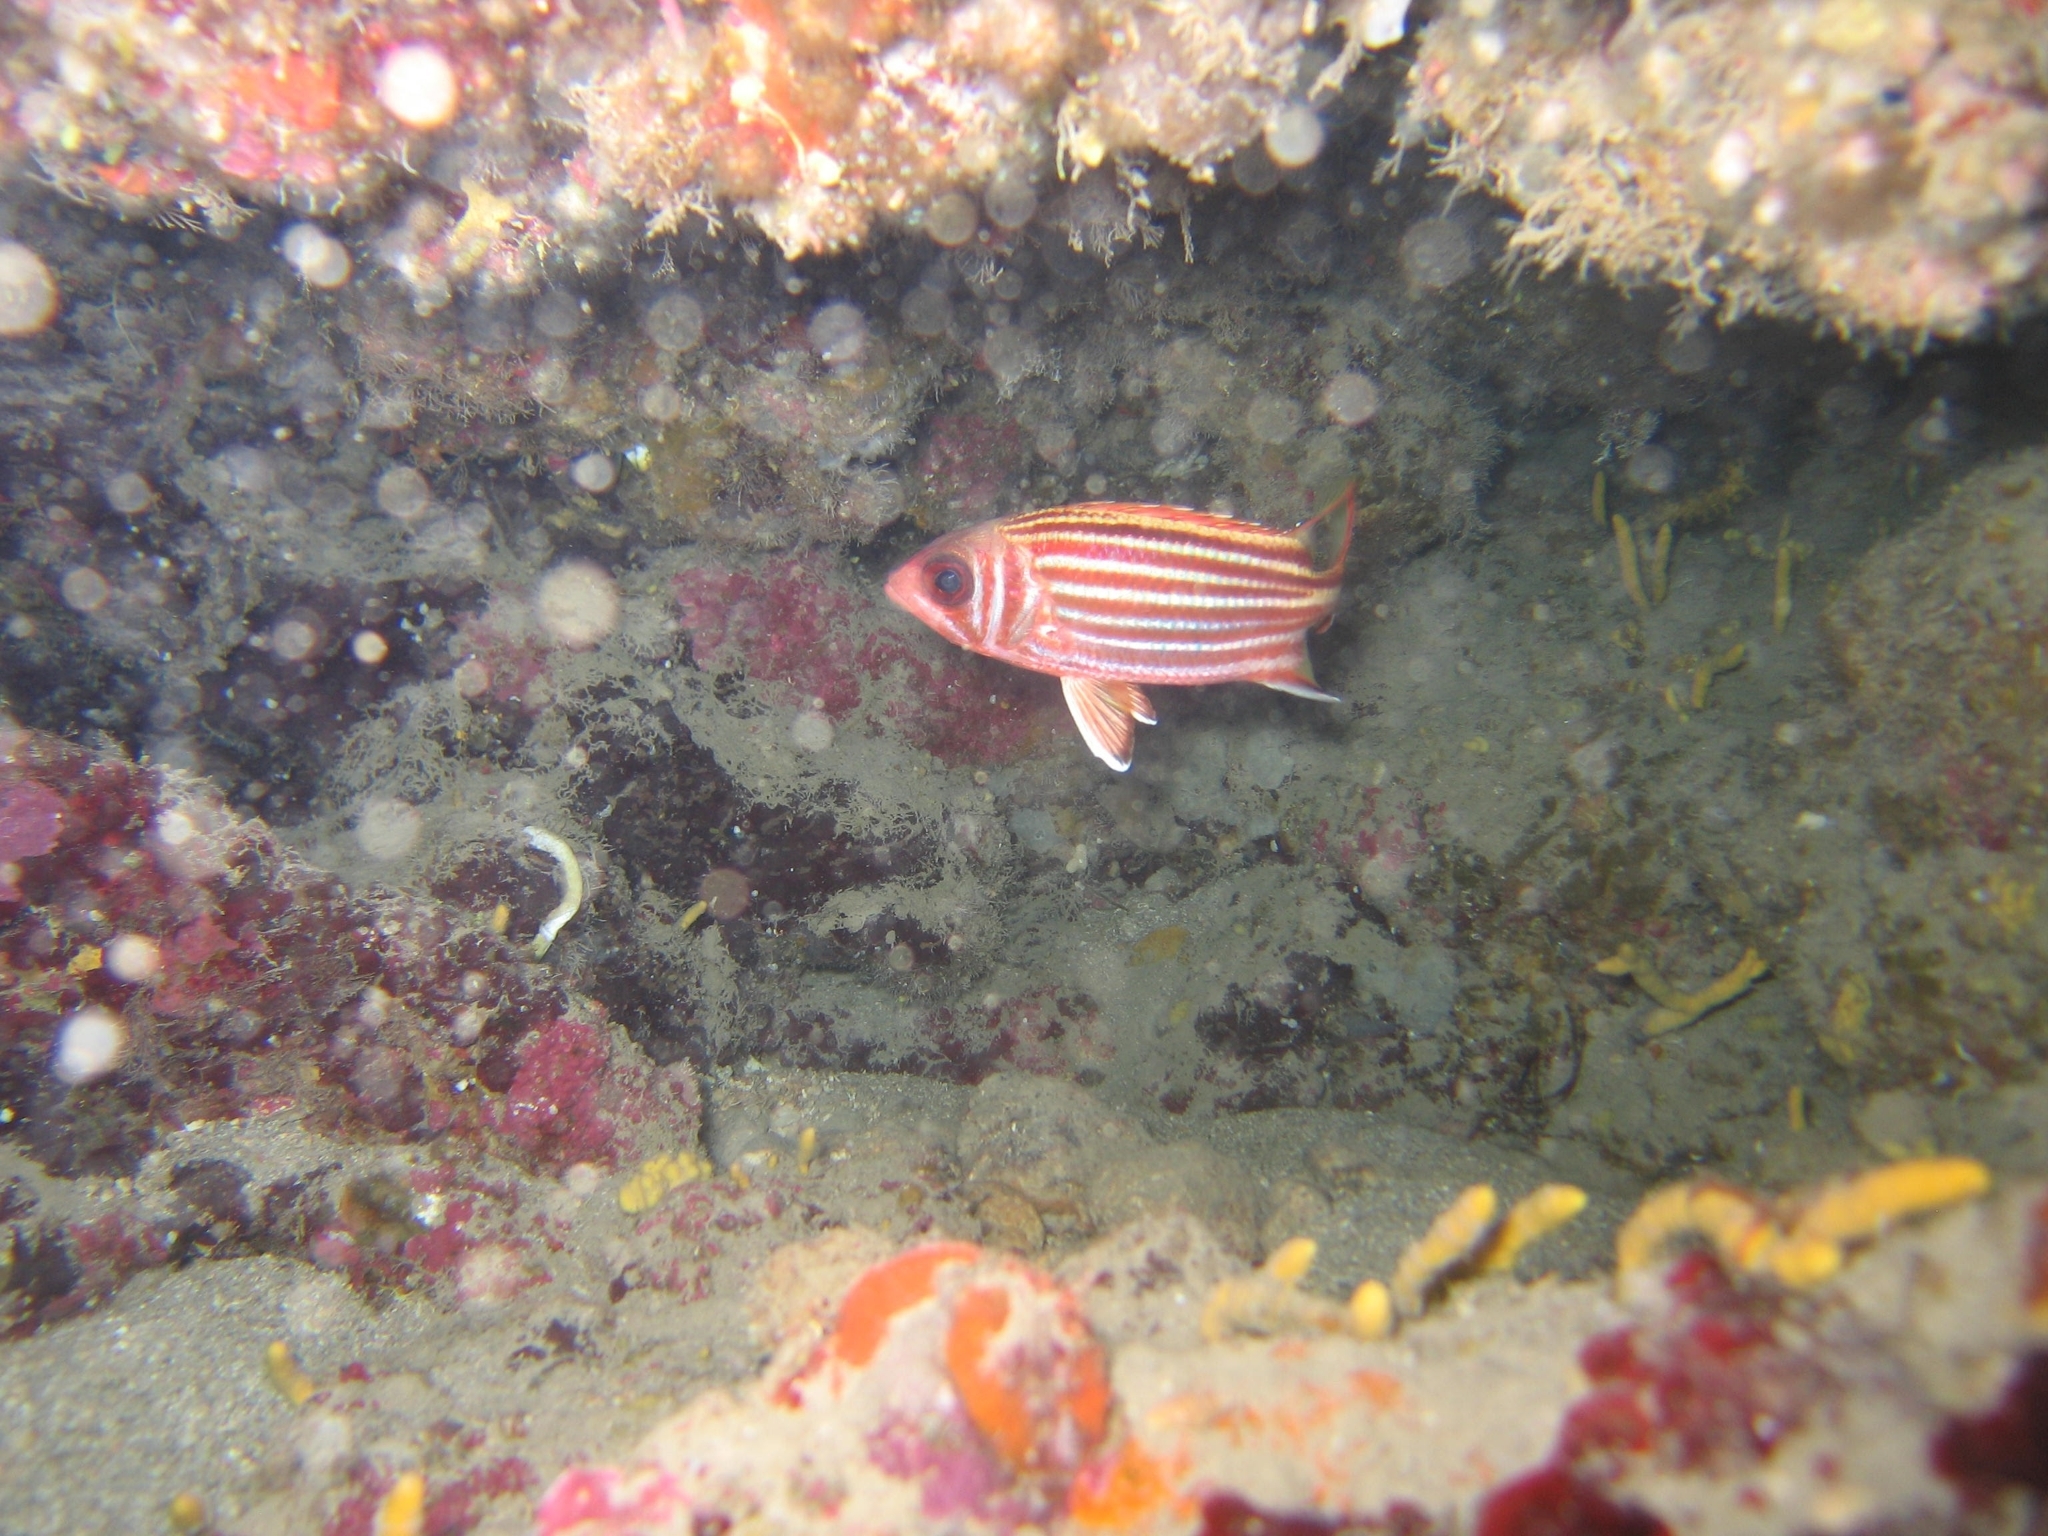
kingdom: Animalia
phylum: Chordata
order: Beryciformes
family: Holocentridae
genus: Sargocentron
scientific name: Sargocentron rubrum
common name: Redcoat
